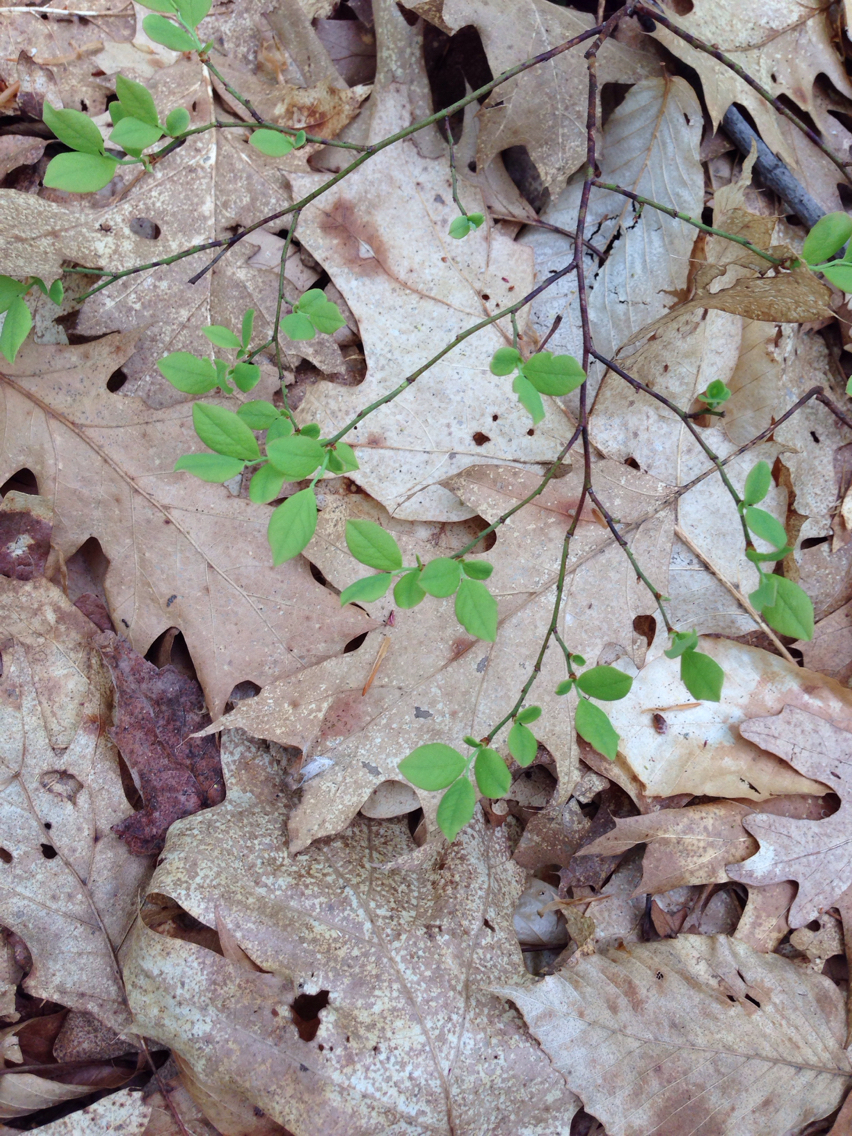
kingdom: Plantae
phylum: Tracheophyta
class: Magnoliopsida
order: Ericales
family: Ericaceae
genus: Vaccinium
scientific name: Vaccinium angustifolium
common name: Early lowbush blueberry
